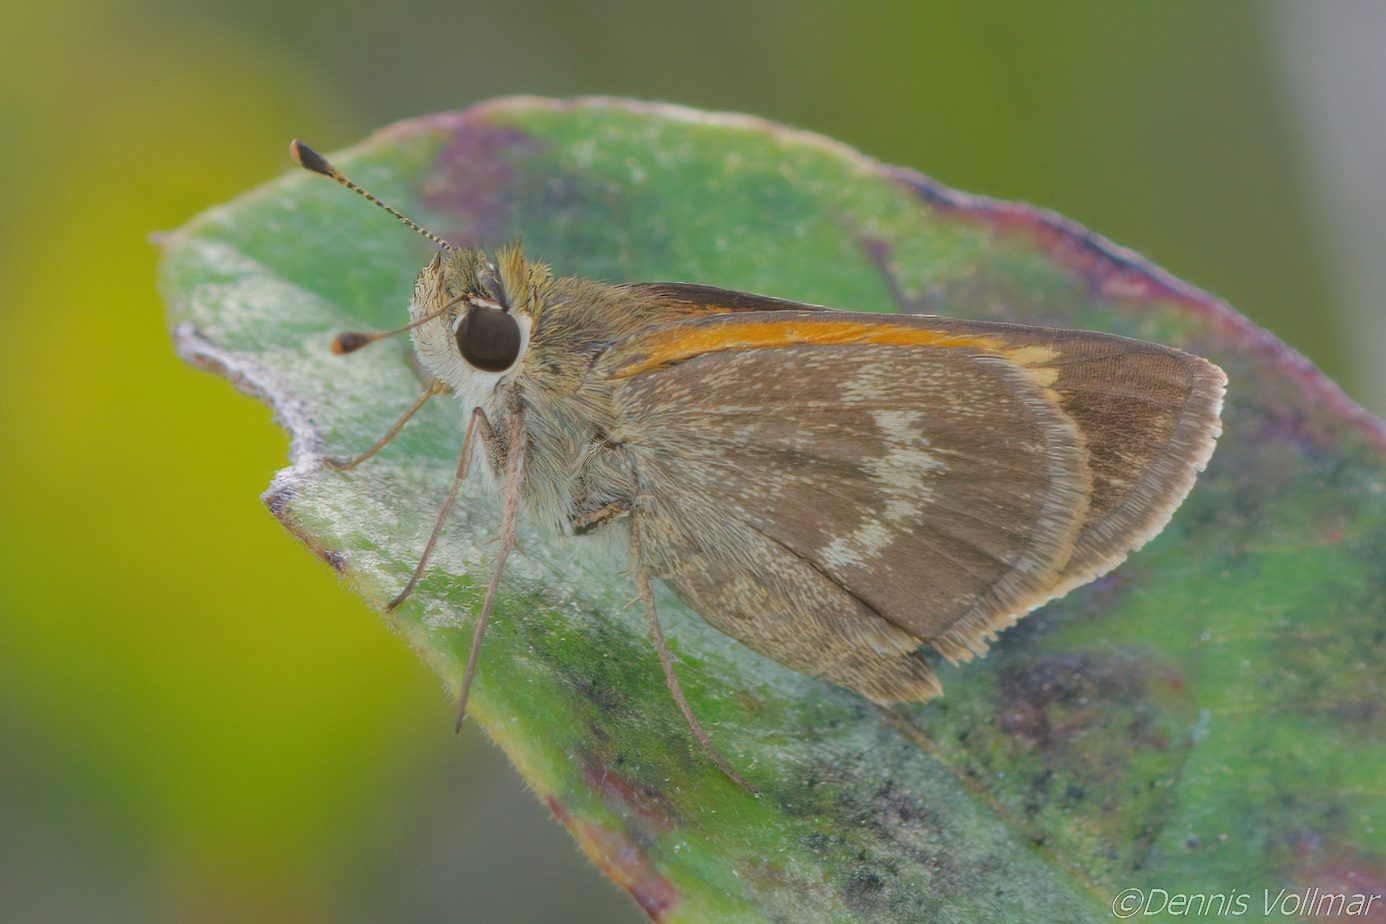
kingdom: Animalia
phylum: Arthropoda
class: Insecta
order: Lepidoptera
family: Hesperiidae
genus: Polites
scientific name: Polites baracoa
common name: Baracoa skipper
